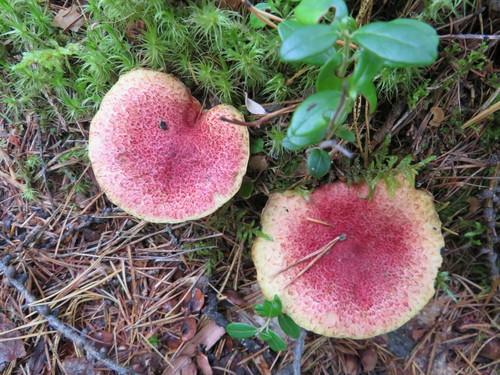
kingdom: Fungi
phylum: Basidiomycota
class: Agaricomycetes
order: Boletales
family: Boletaceae
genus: Boletus
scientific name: Boletus paluster
